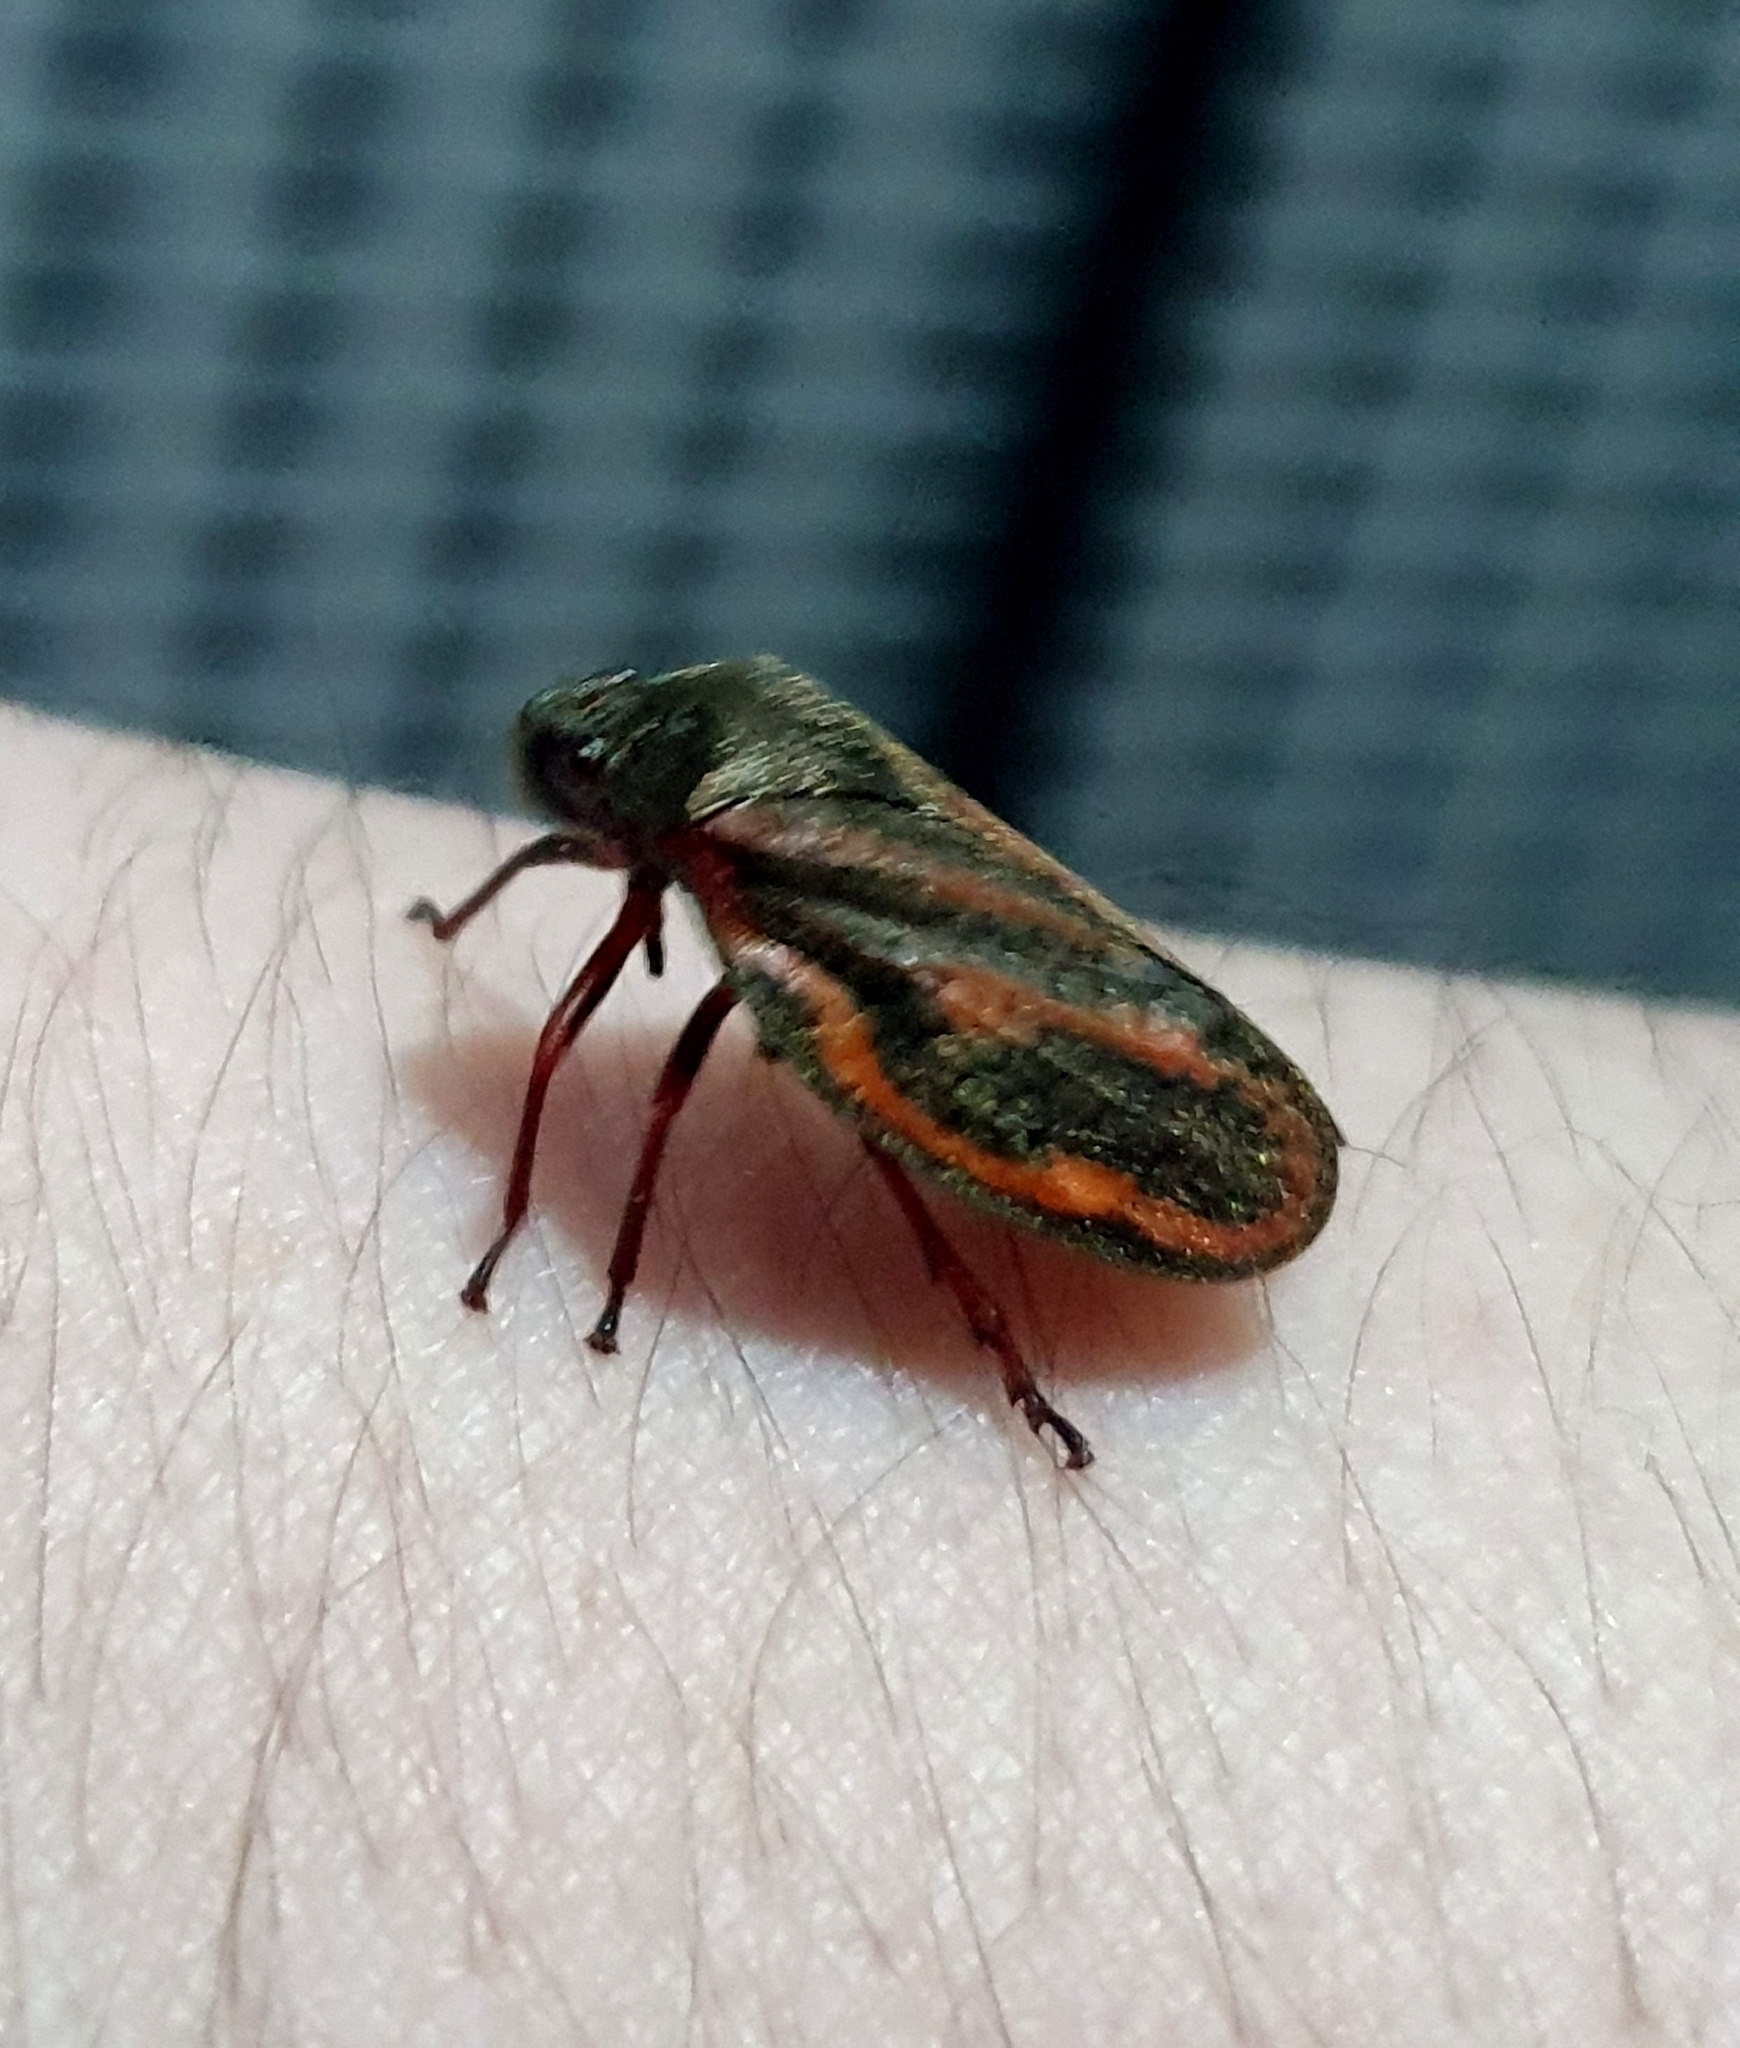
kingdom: Animalia
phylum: Arthropoda
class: Insecta
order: Hemiptera
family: Cercopidae
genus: Mahanarva
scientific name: Mahanarva liturata
